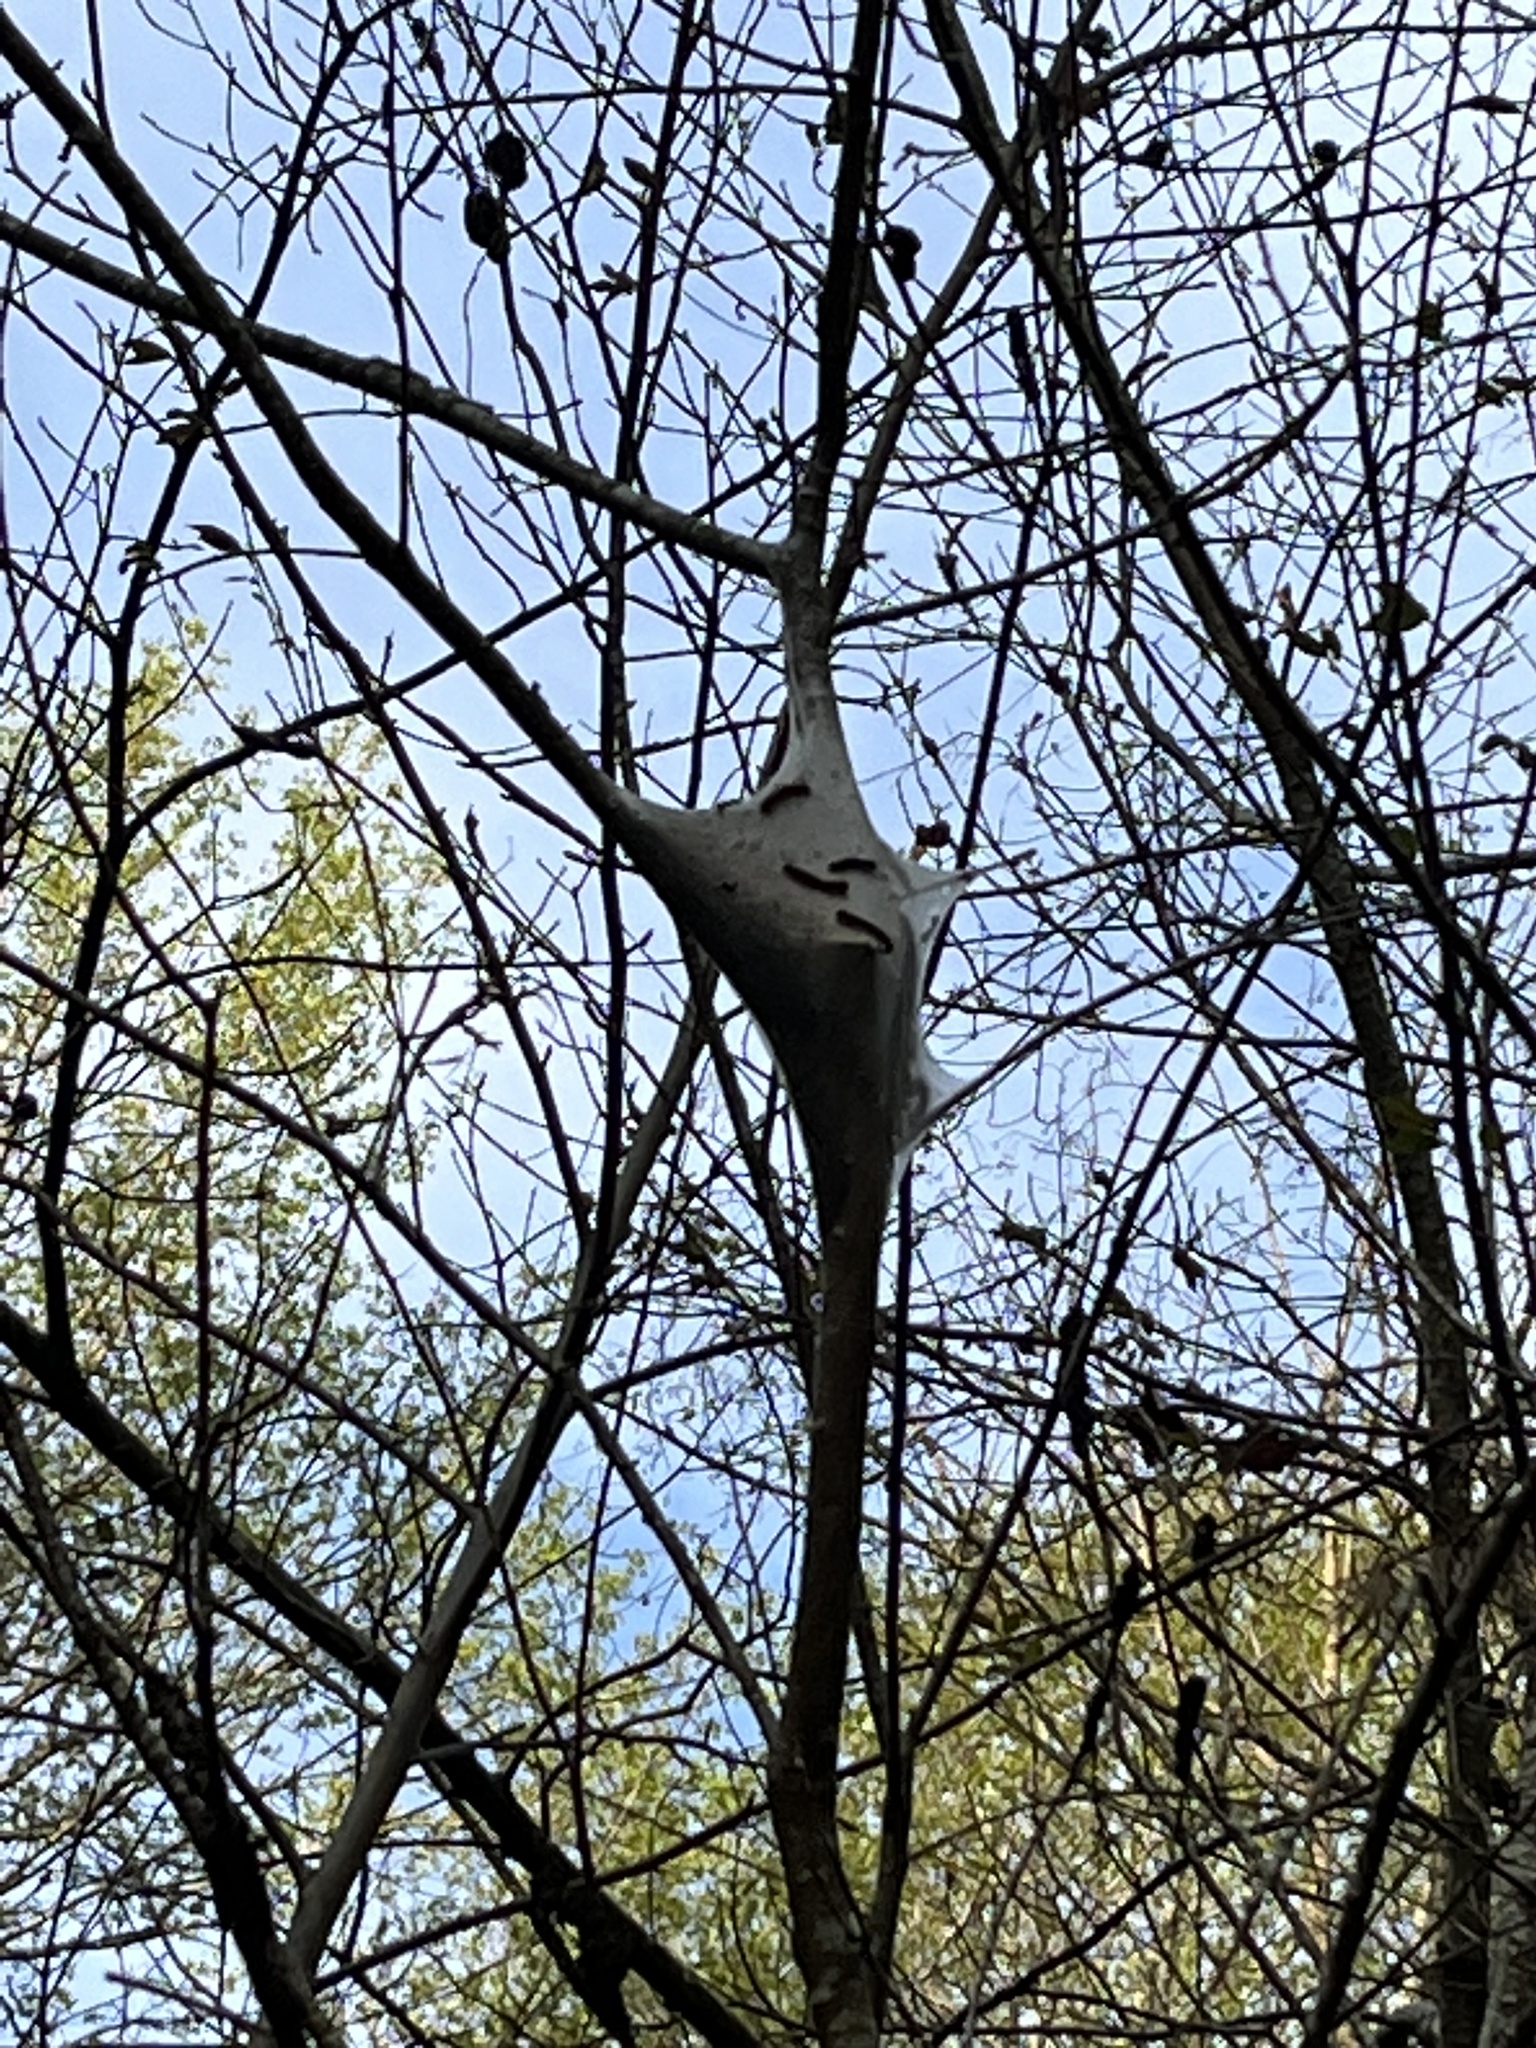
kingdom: Animalia
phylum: Arthropoda
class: Insecta
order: Lepidoptera
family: Lasiocampidae
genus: Malacosoma
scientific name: Malacosoma americana
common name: Eastern tent caterpillar moth
